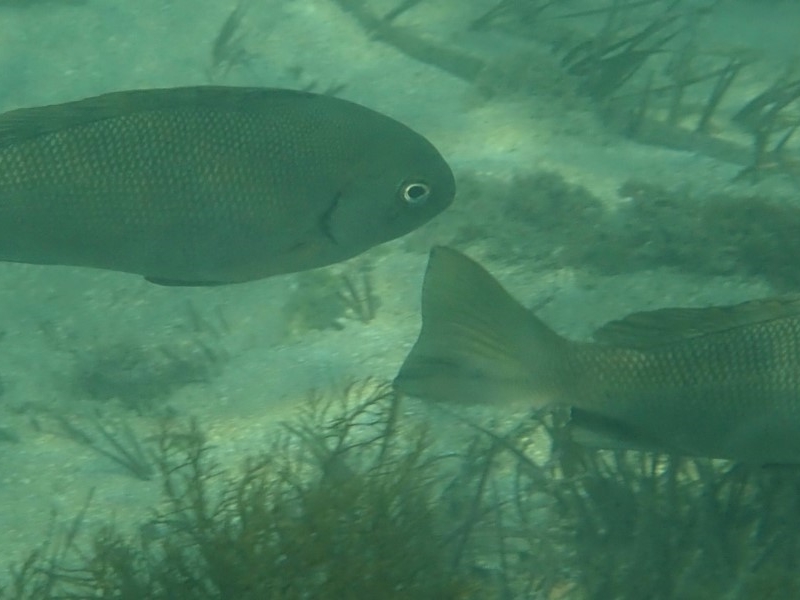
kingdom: Animalia
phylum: Chordata
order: Perciformes
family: Kyphosidae
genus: Girella
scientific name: Girella elevata
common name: Black bream
